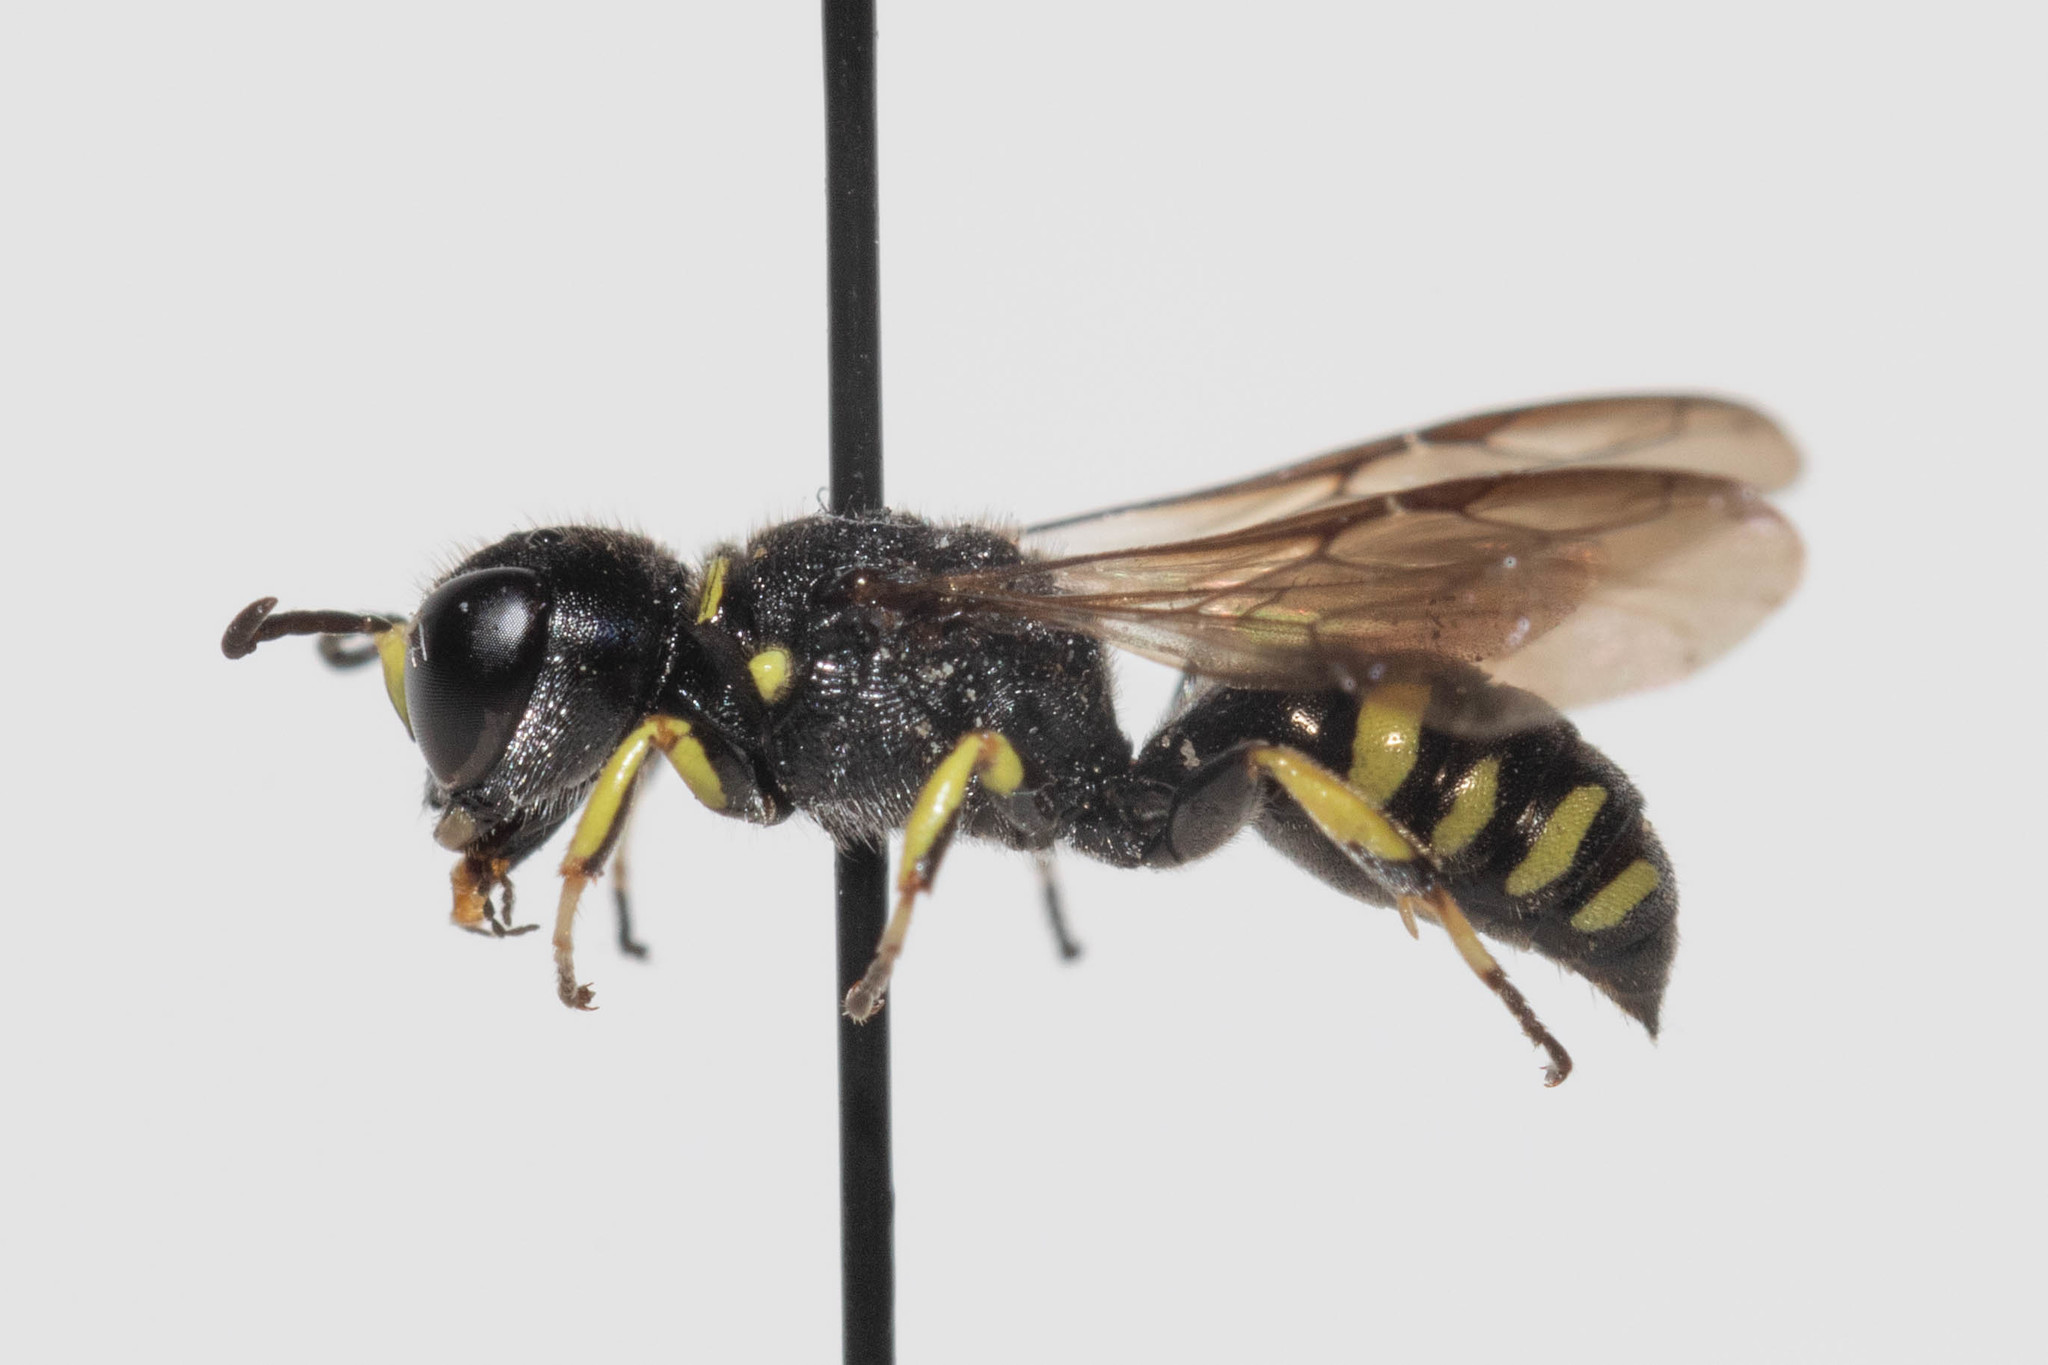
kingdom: Animalia
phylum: Arthropoda
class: Insecta
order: Hymenoptera
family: Crabronidae
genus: Ectemnius
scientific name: Ectemnius spiniferus
